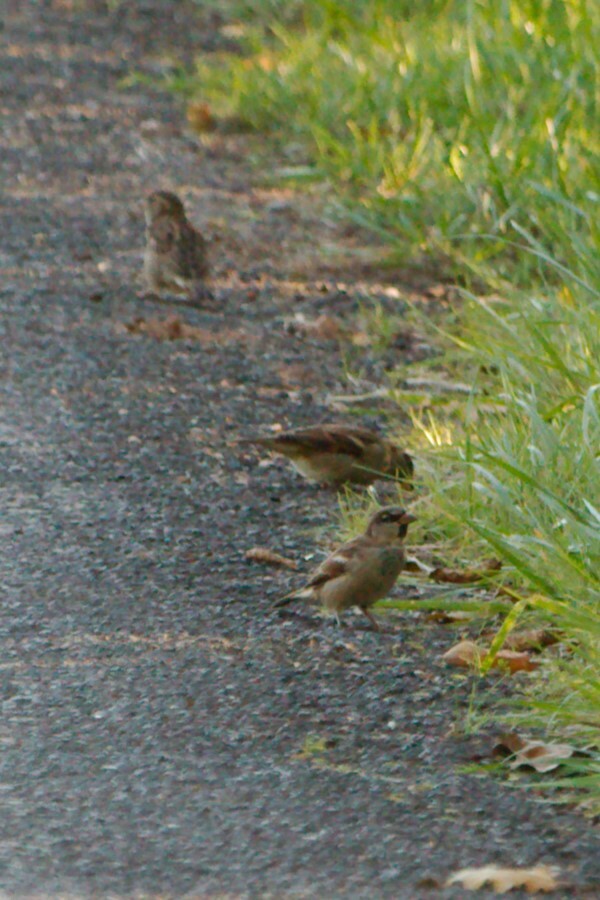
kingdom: Animalia
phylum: Chordata
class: Aves
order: Passeriformes
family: Passeridae
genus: Passer
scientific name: Passer domesticus
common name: House sparrow
